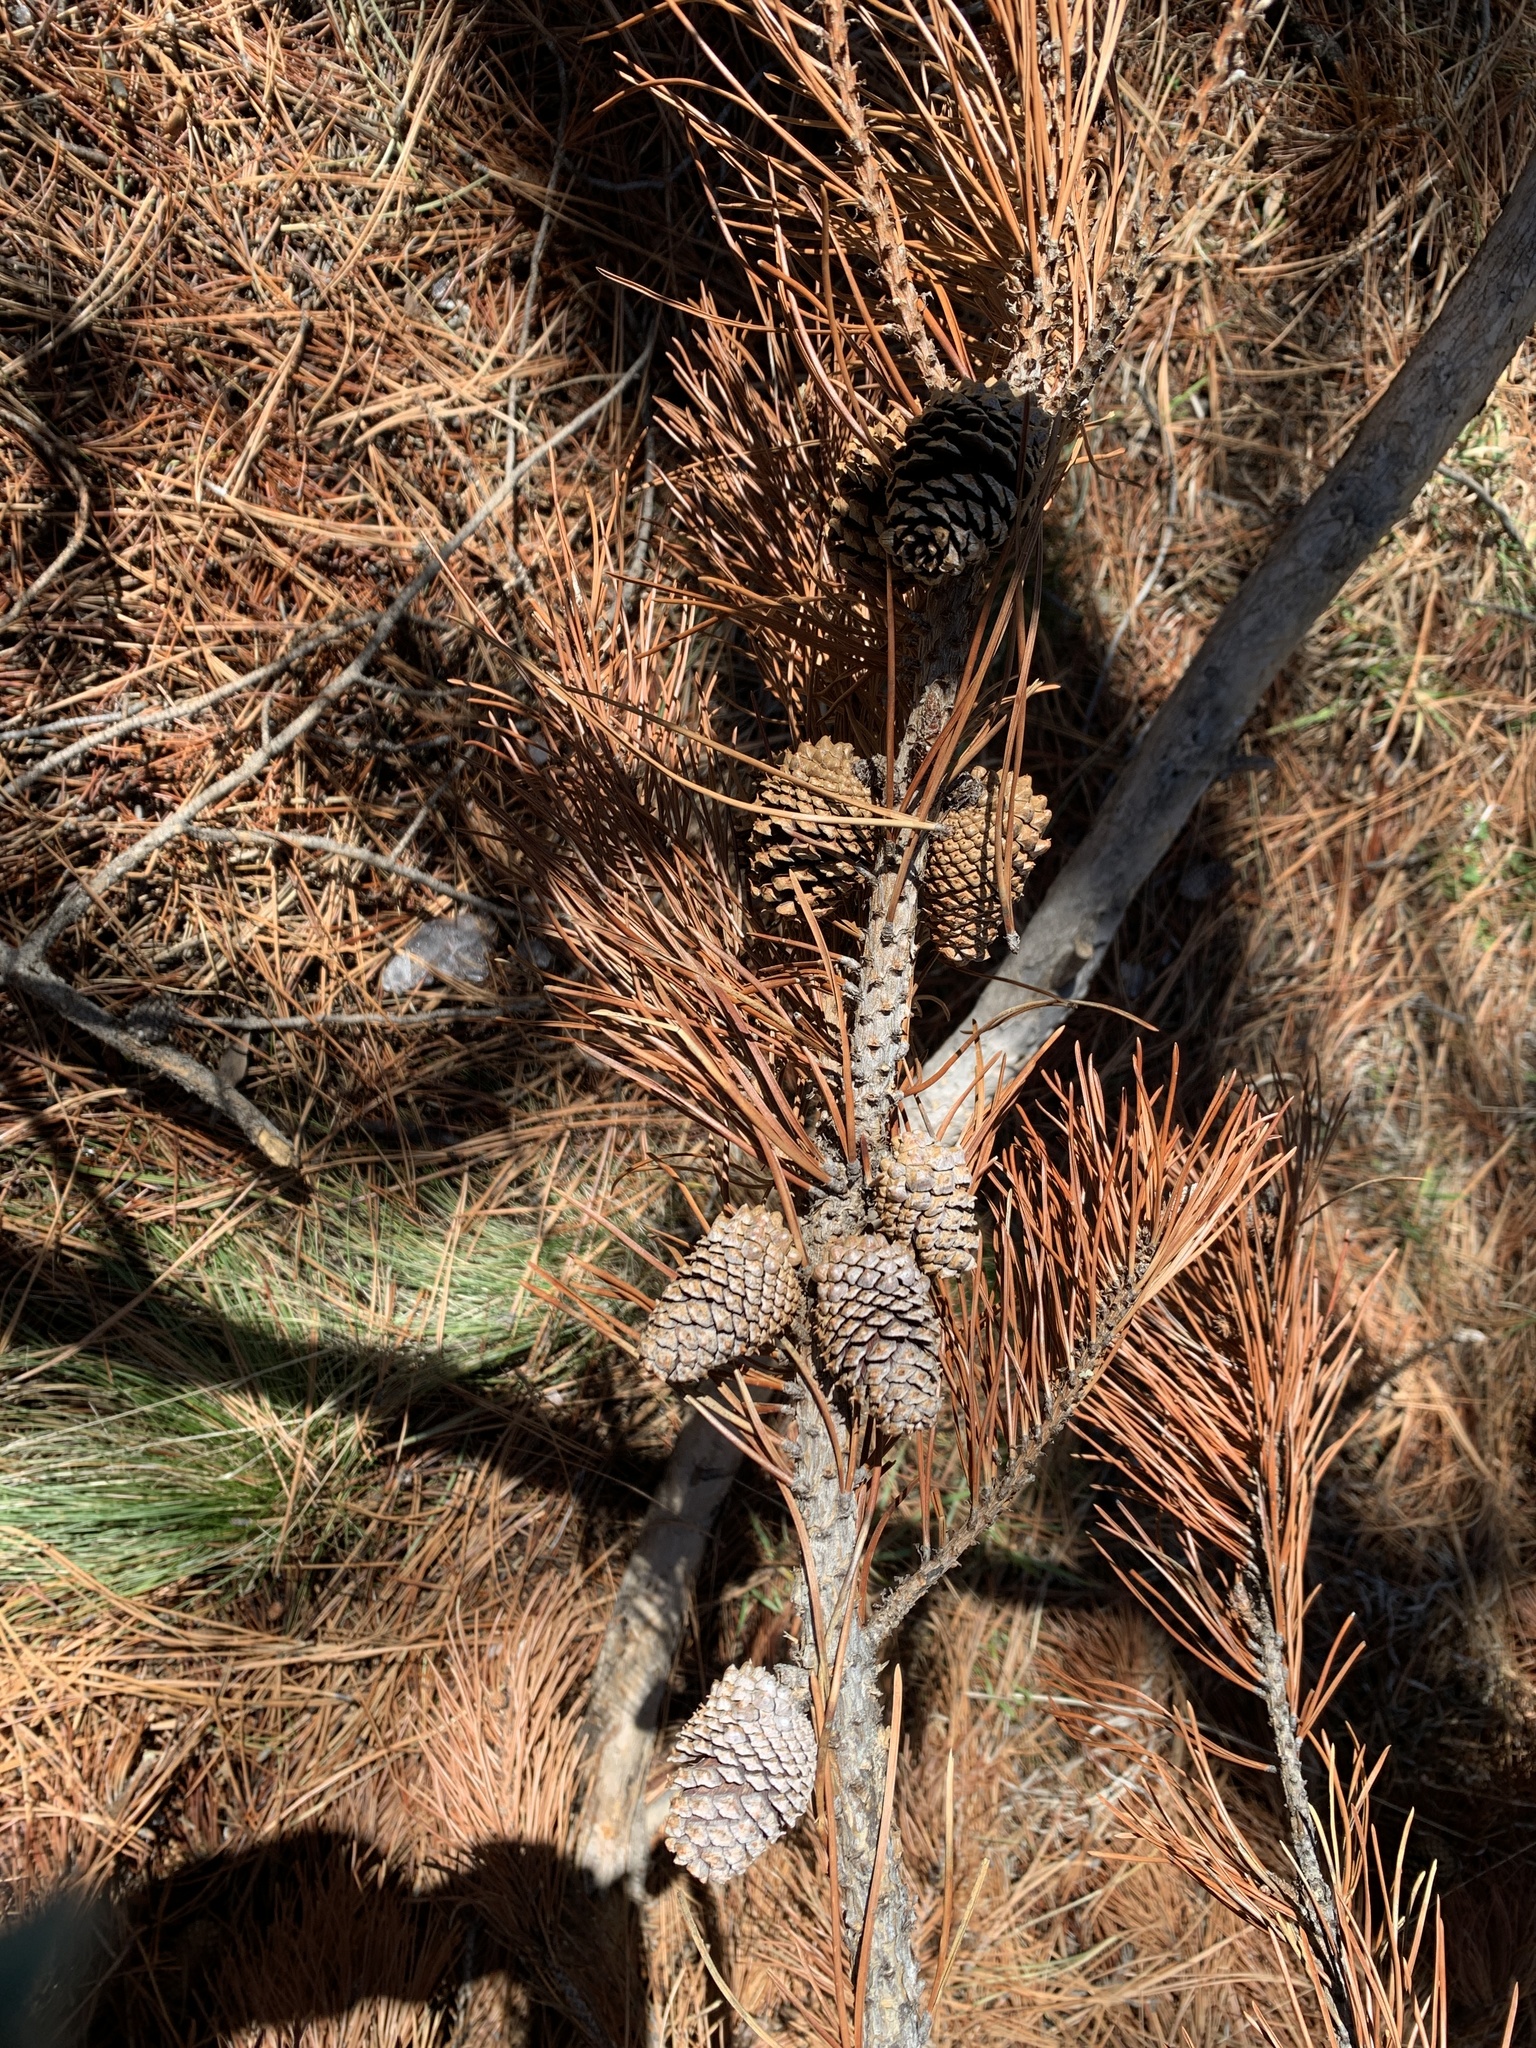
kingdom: Plantae
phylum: Tracheophyta
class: Pinopsida
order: Pinales
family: Pinaceae
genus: Pinus
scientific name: Pinus contorta
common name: Lodgepole pine
